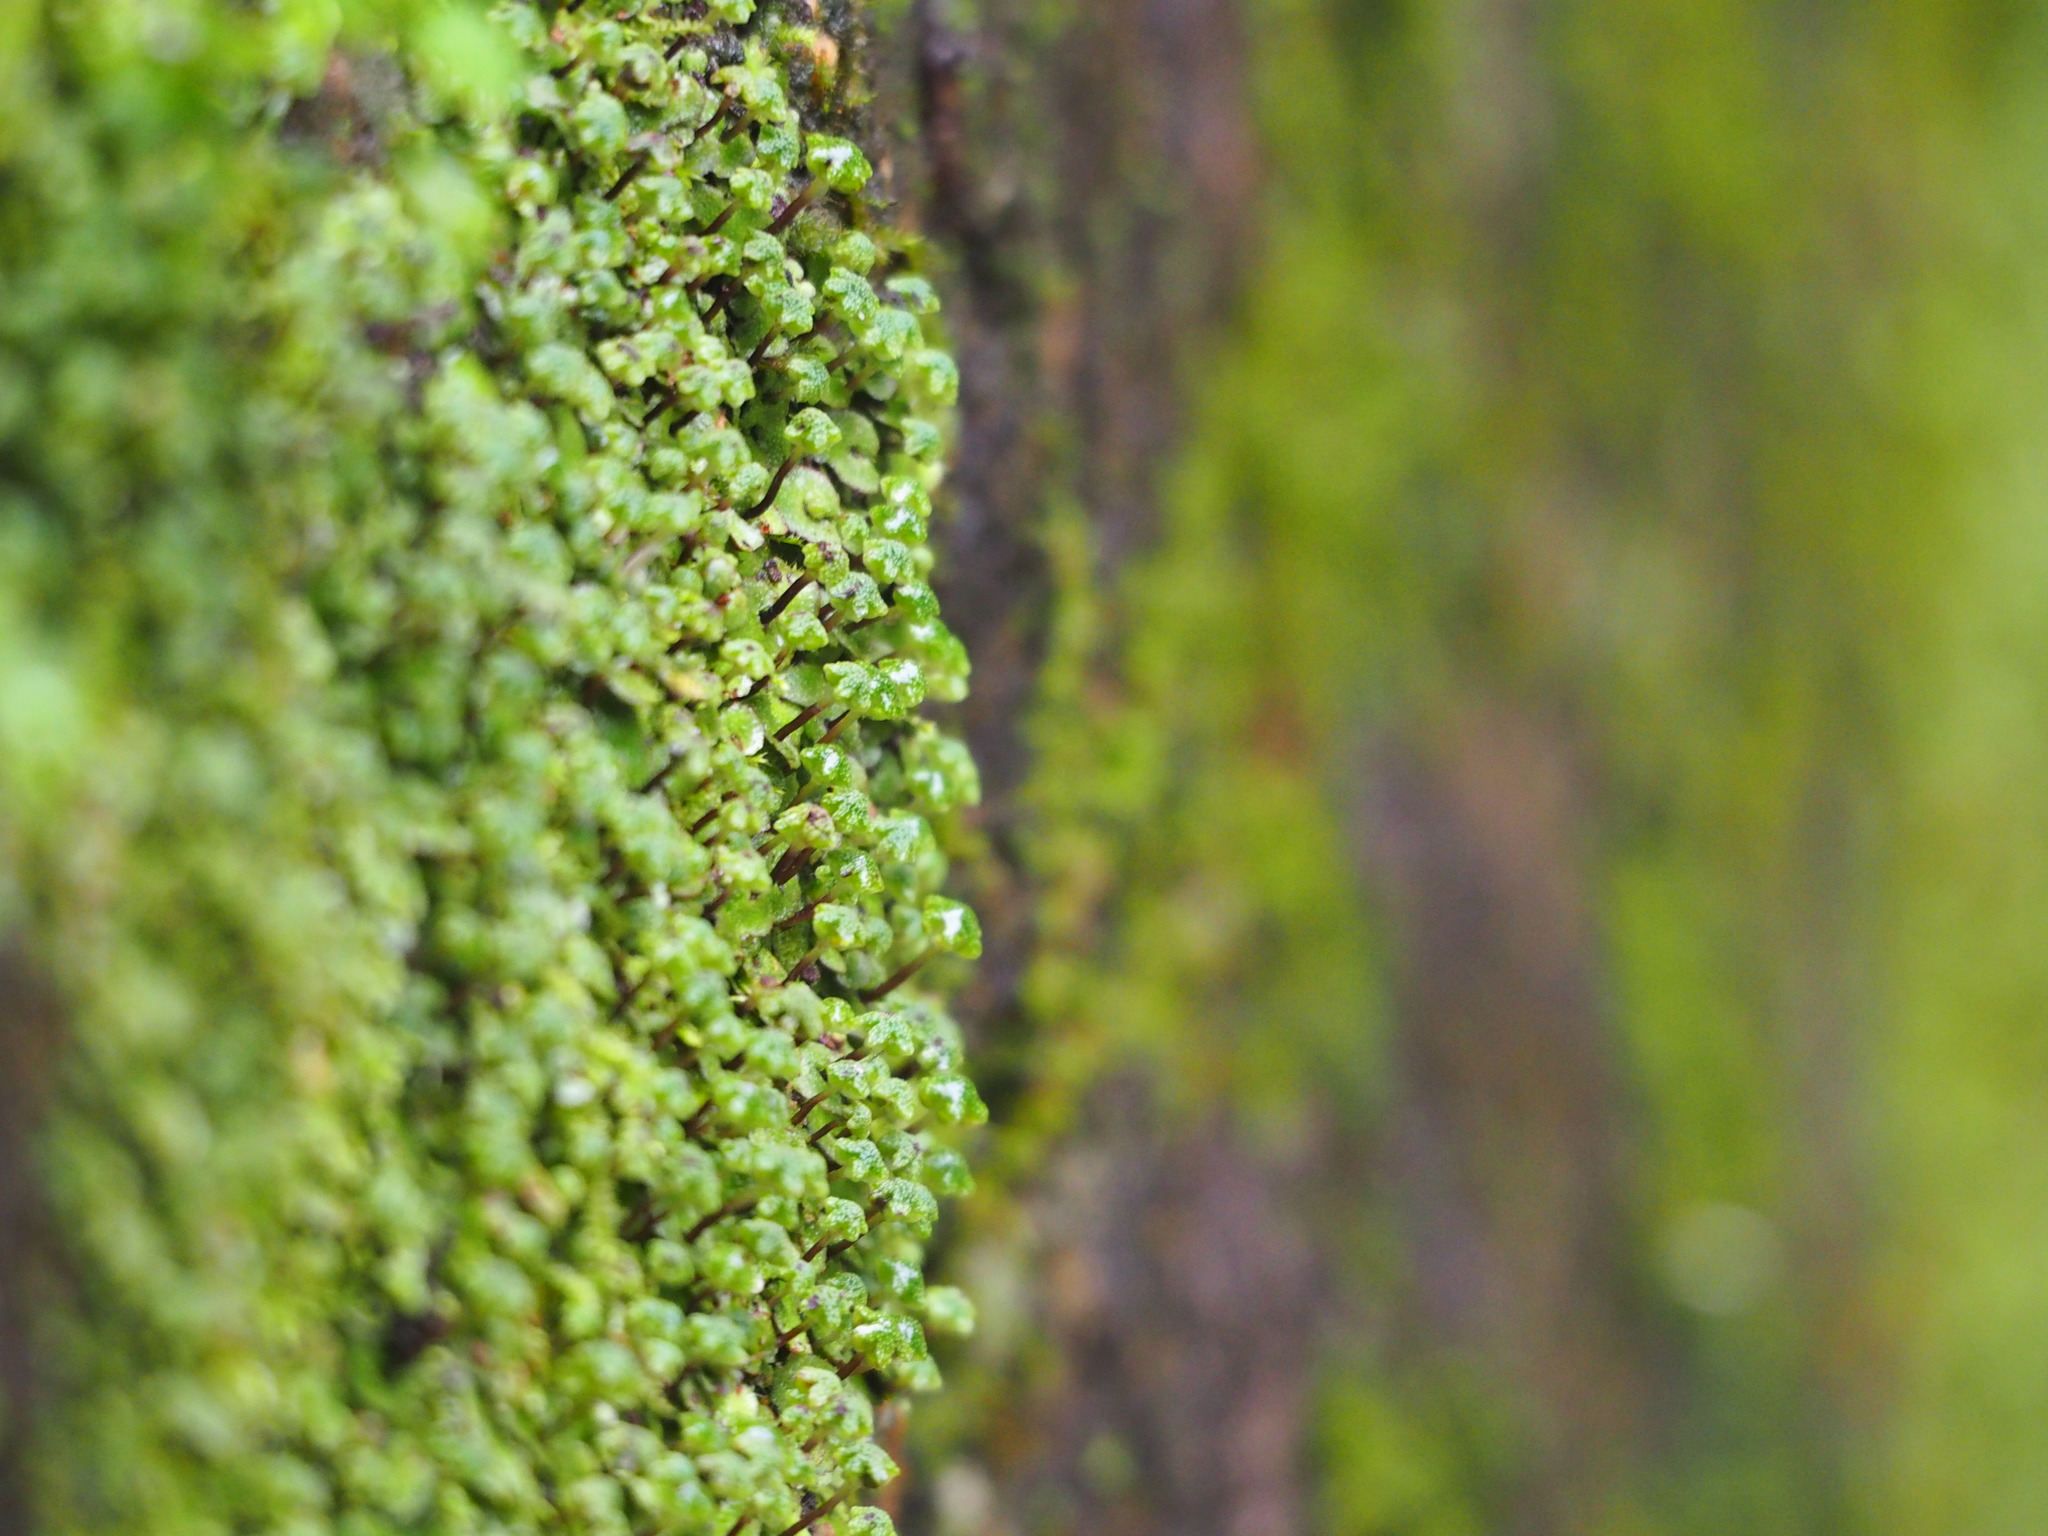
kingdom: Plantae
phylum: Marchantiophyta
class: Marchantiopsida
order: Marchantiales
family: Aytoniaceae
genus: Reboulia
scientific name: Reboulia hemisphaerica
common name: Purple-margined liverwort
